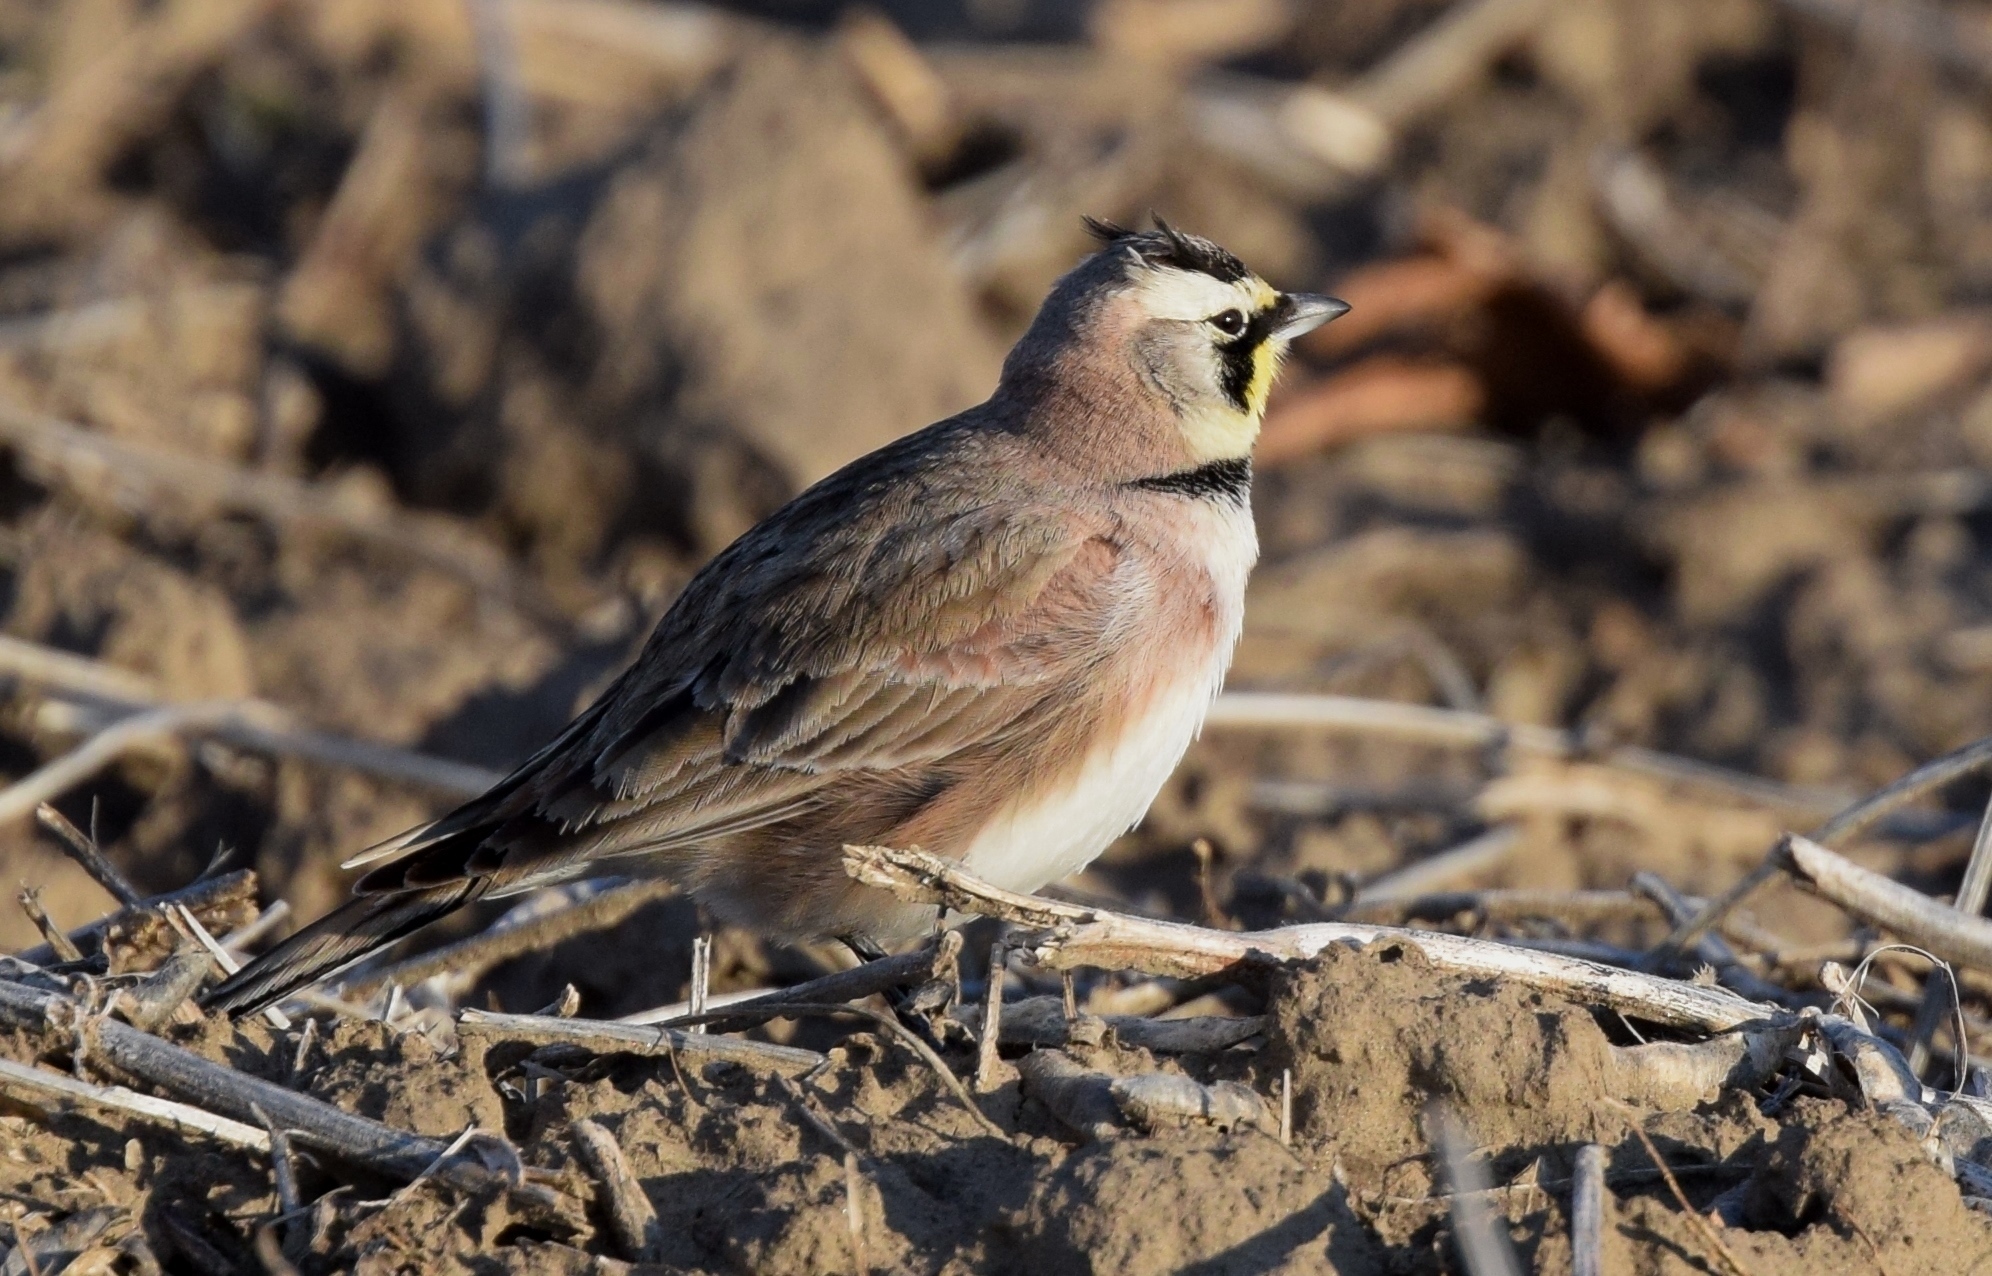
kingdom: Animalia
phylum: Chordata
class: Aves
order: Passeriformes
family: Alaudidae
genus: Eremophila
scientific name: Eremophila alpestris
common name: Horned lark
